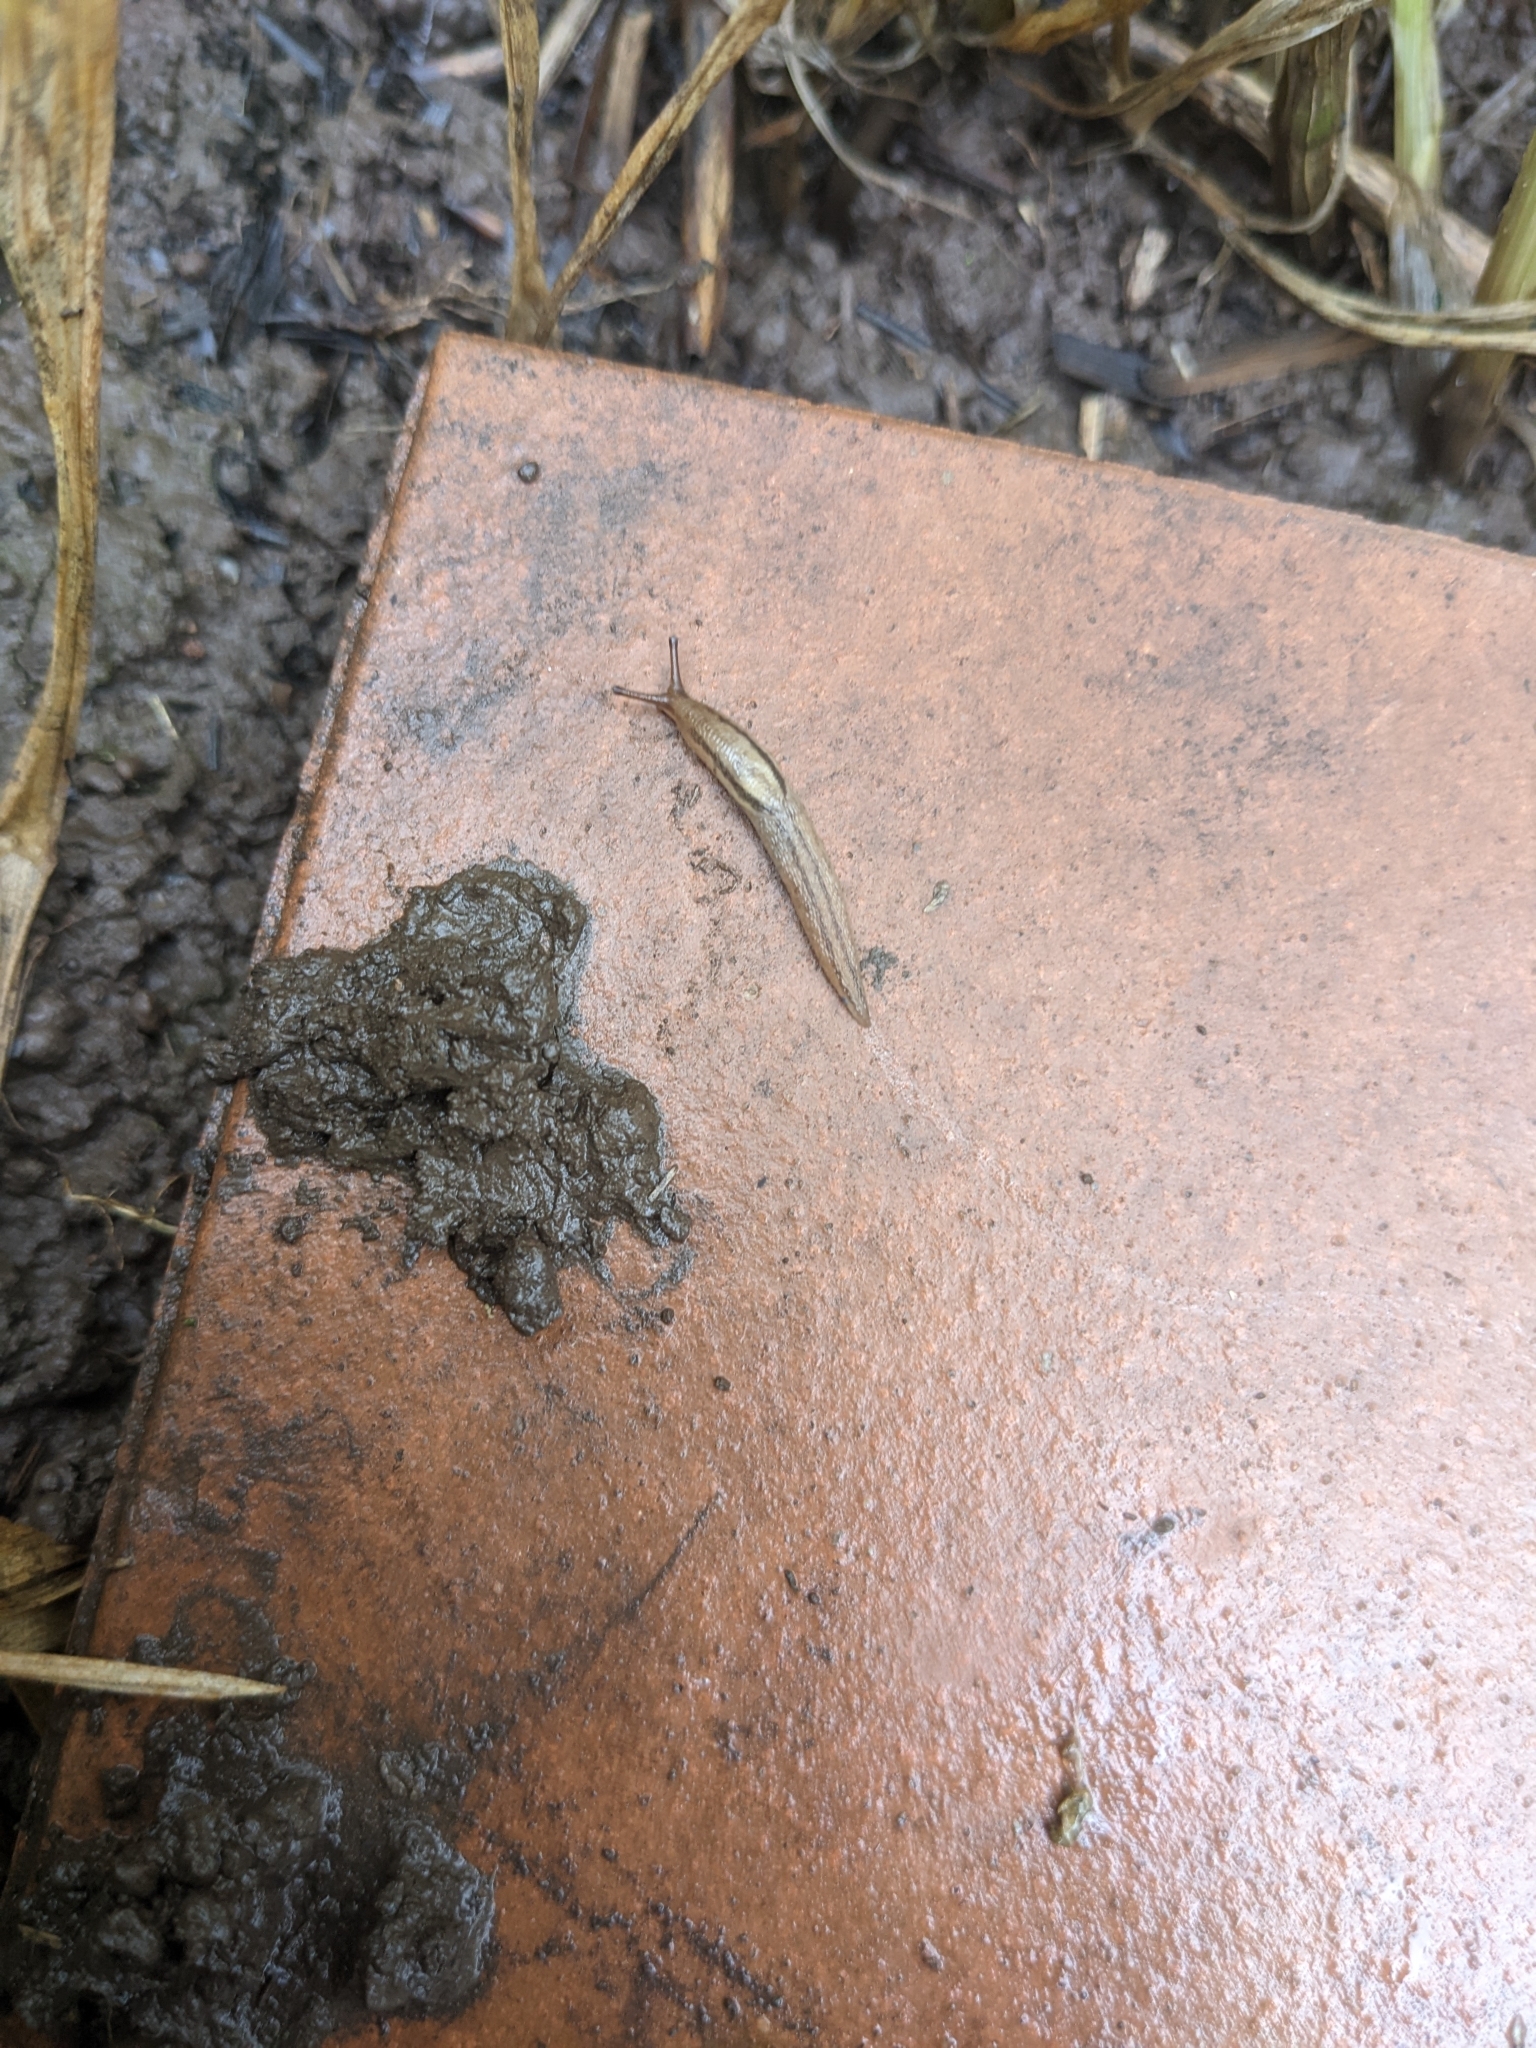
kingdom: Animalia
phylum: Mollusca
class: Gastropoda
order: Stylommatophora
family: Limacidae
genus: Ambigolimax
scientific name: Ambigolimax
